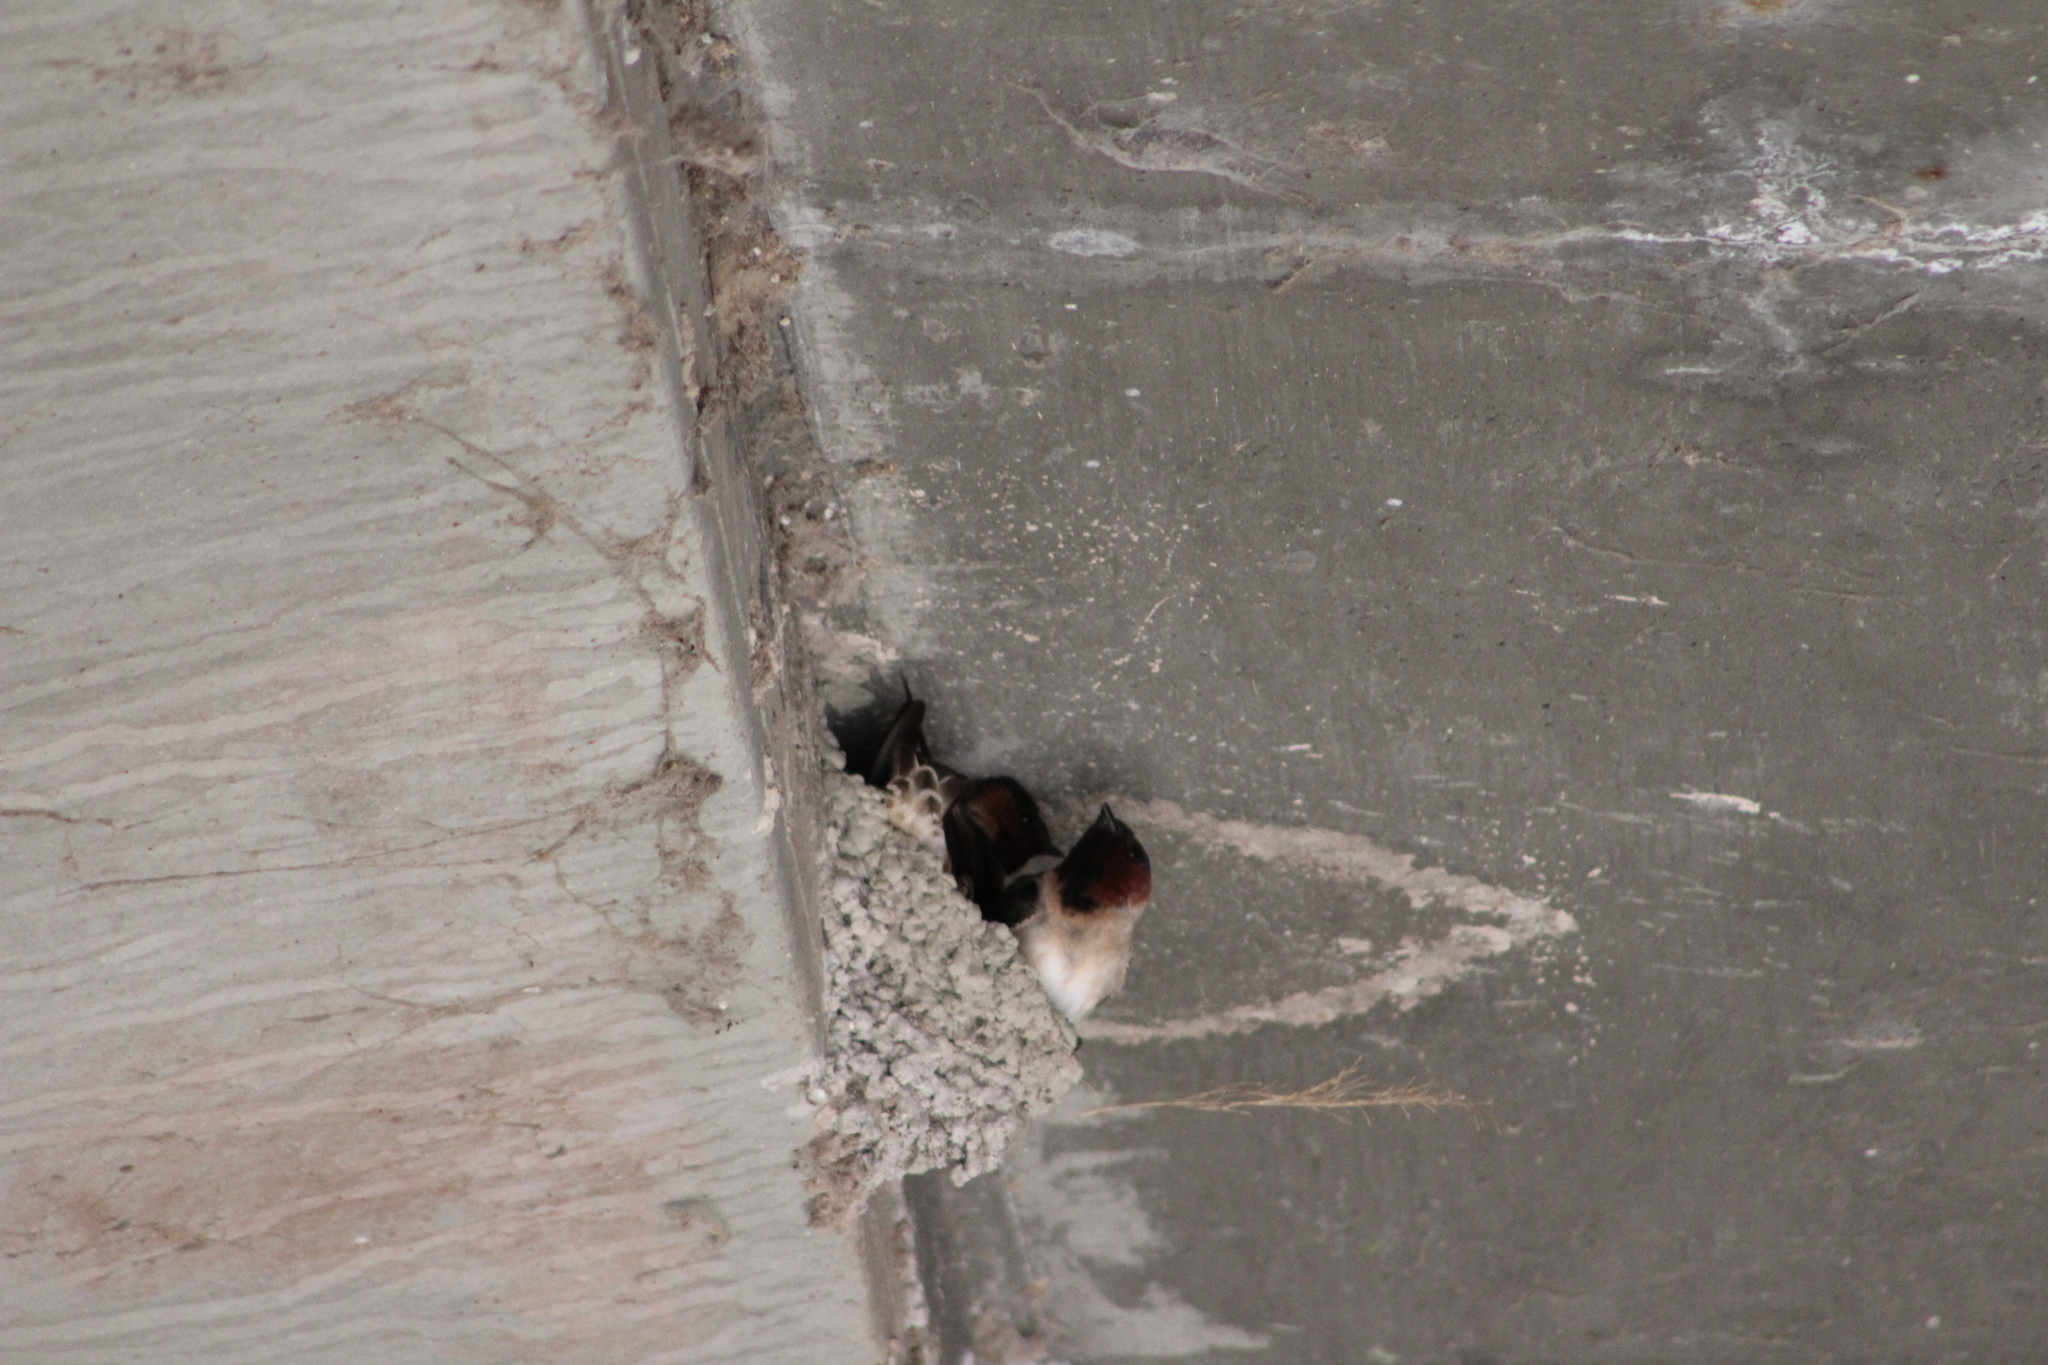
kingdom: Animalia
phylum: Chordata
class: Aves
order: Passeriformes
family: Hirundinidae
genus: Petrochelidon
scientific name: Petrochelidon pyrrhonota
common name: American cliff swallow
